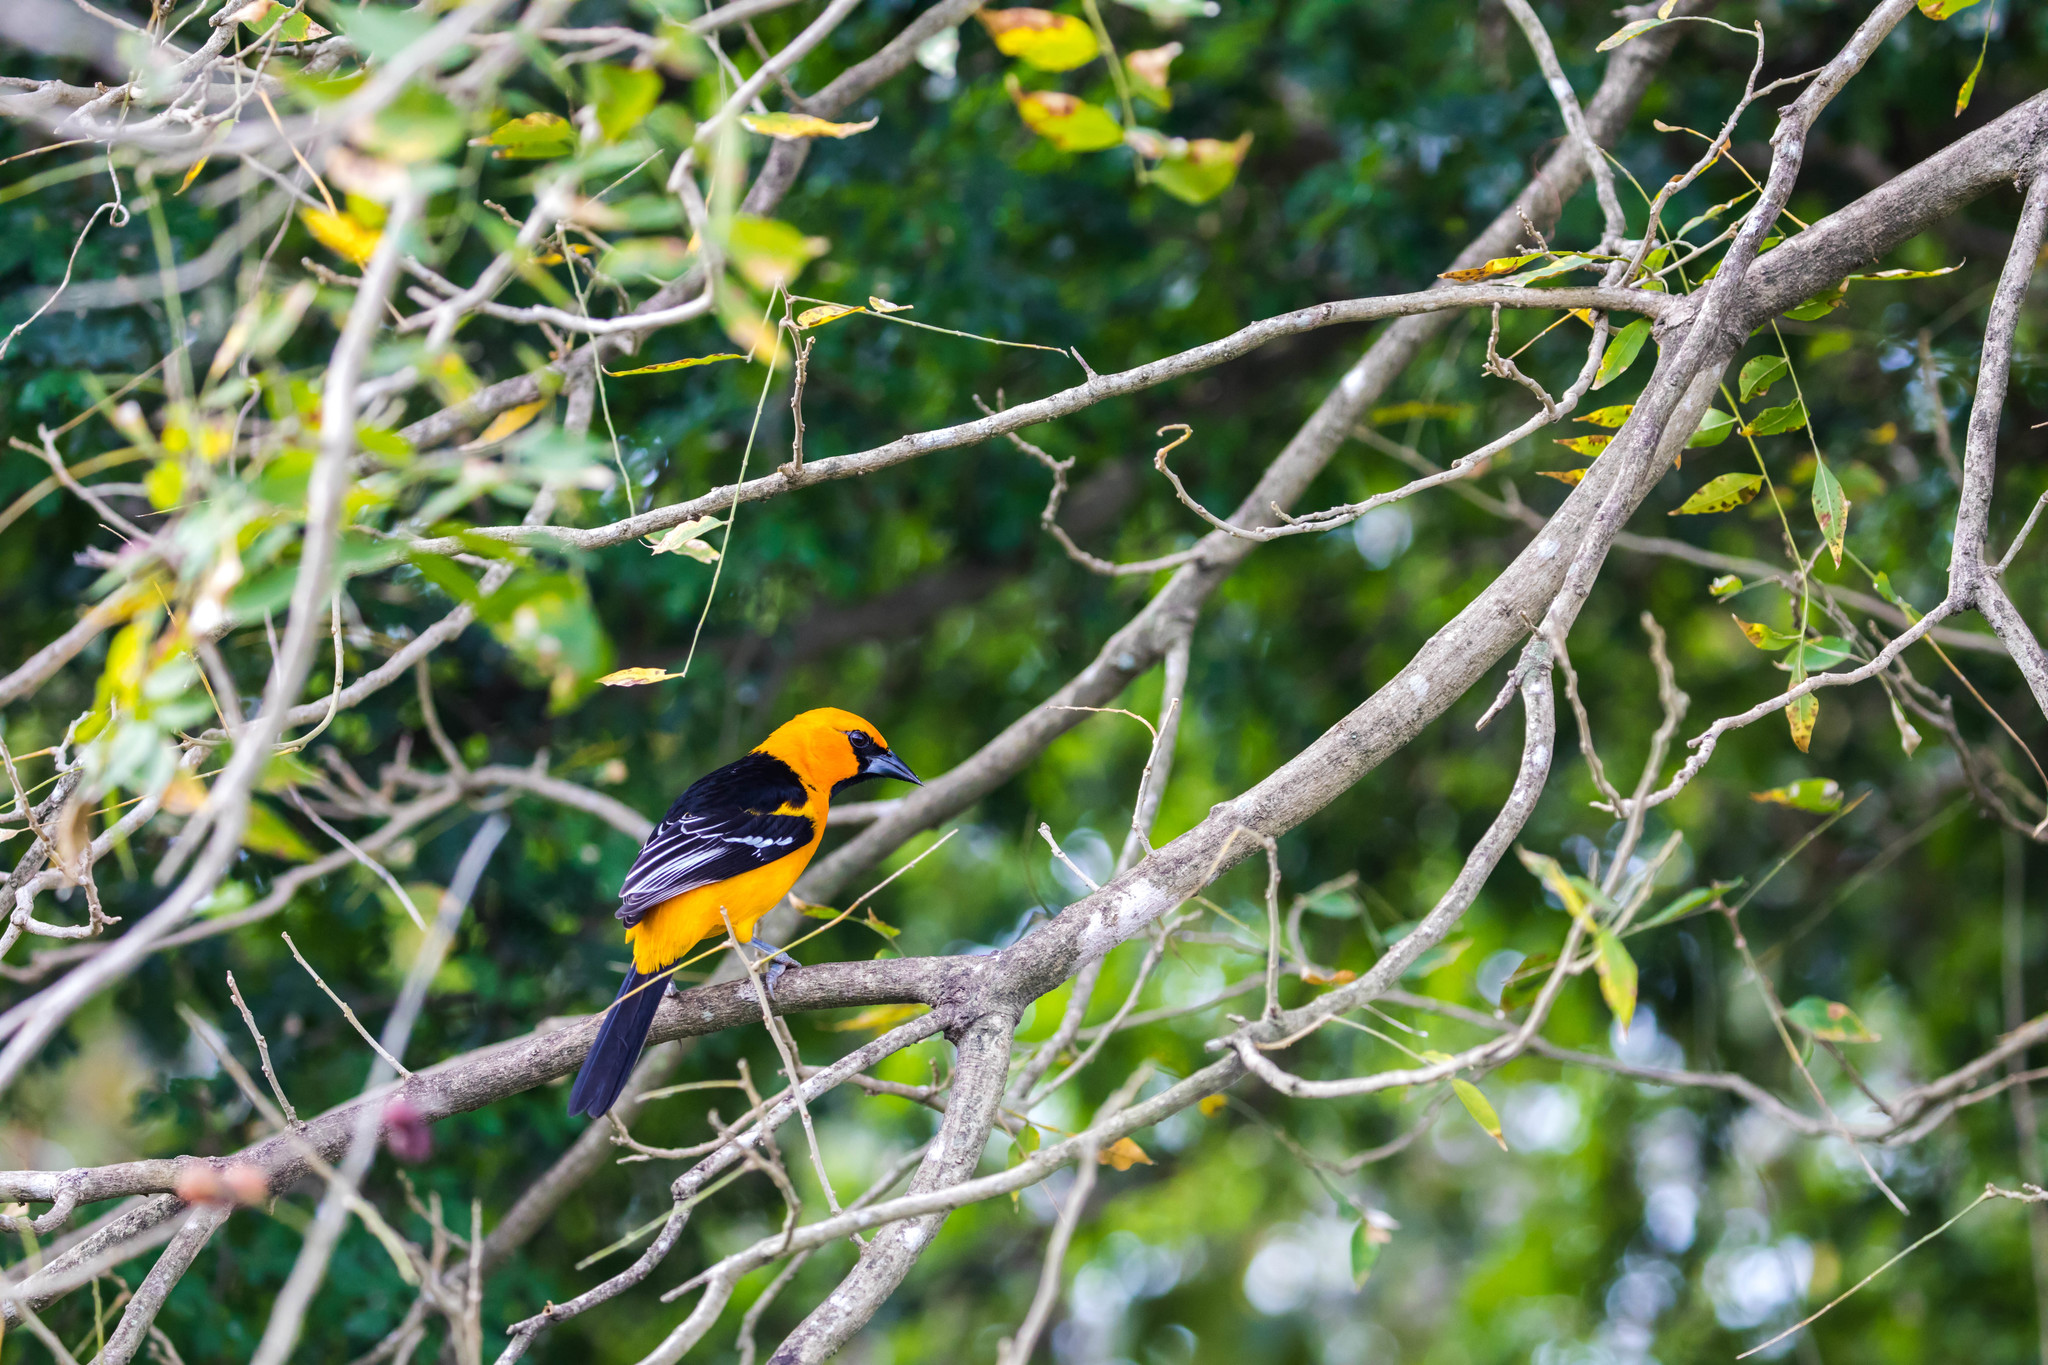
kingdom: Animalia
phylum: Chordata
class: Aves
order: Passeriformes
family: Icteridae
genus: Icterus
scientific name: Icterus gularis
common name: Altamira oriole
